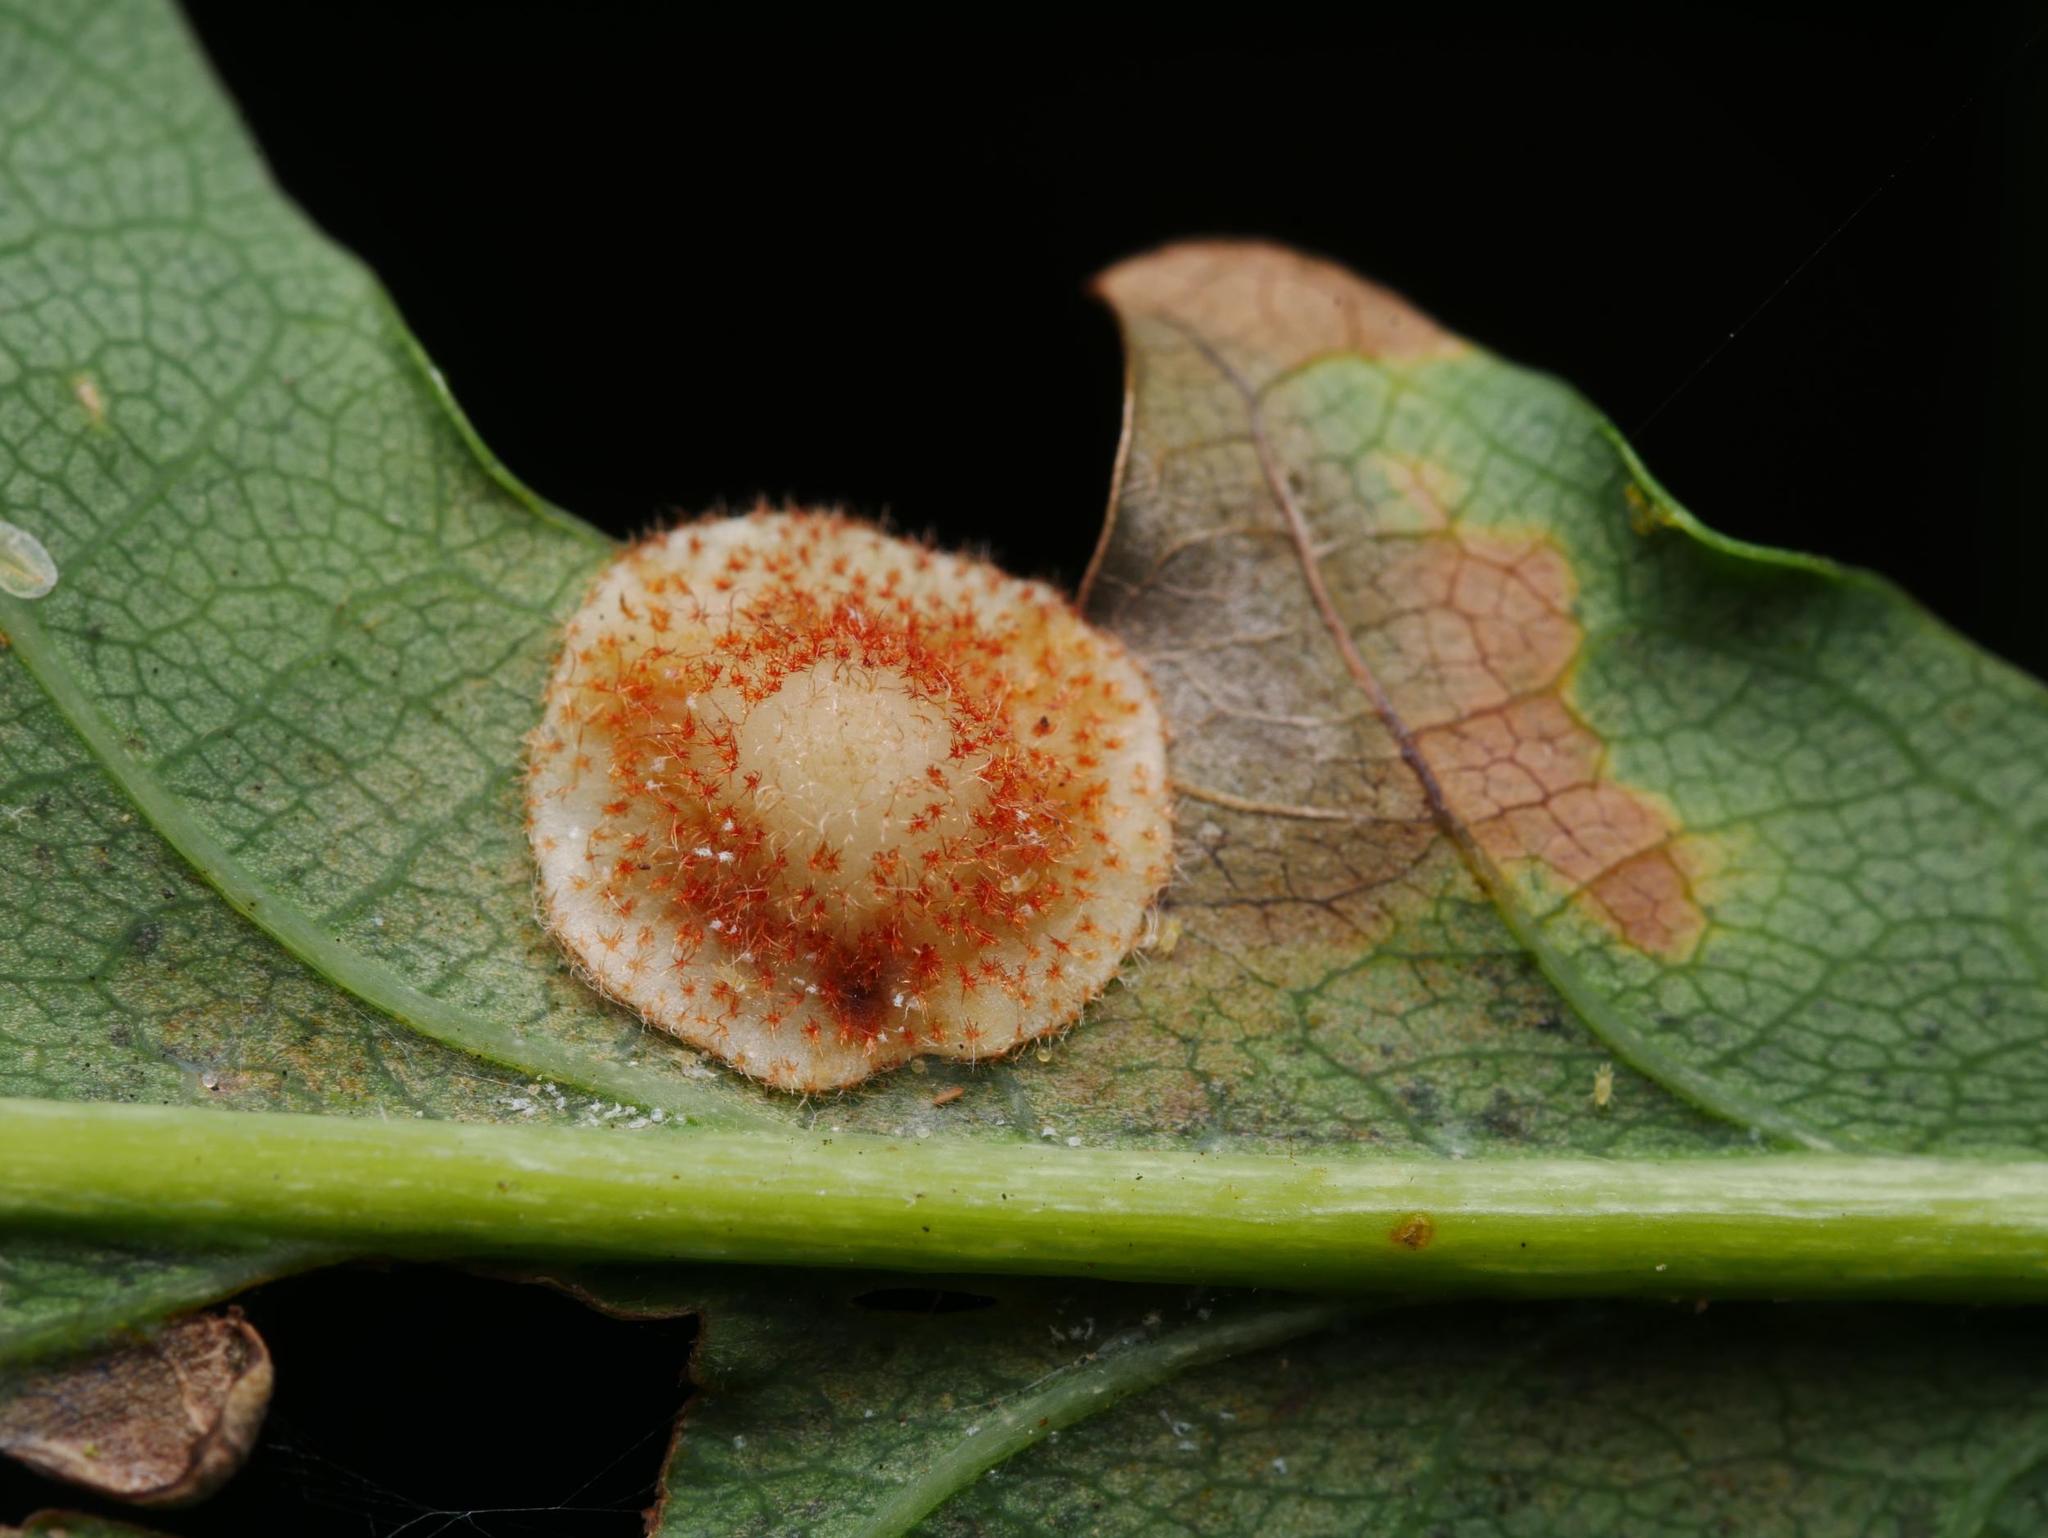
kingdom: Animalia
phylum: Arthropoda
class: Insecta
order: Hymenoptera
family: Cynipidae
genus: Neuroterus
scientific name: Neuroterus quercusbaccarum
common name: Common spangle gall
